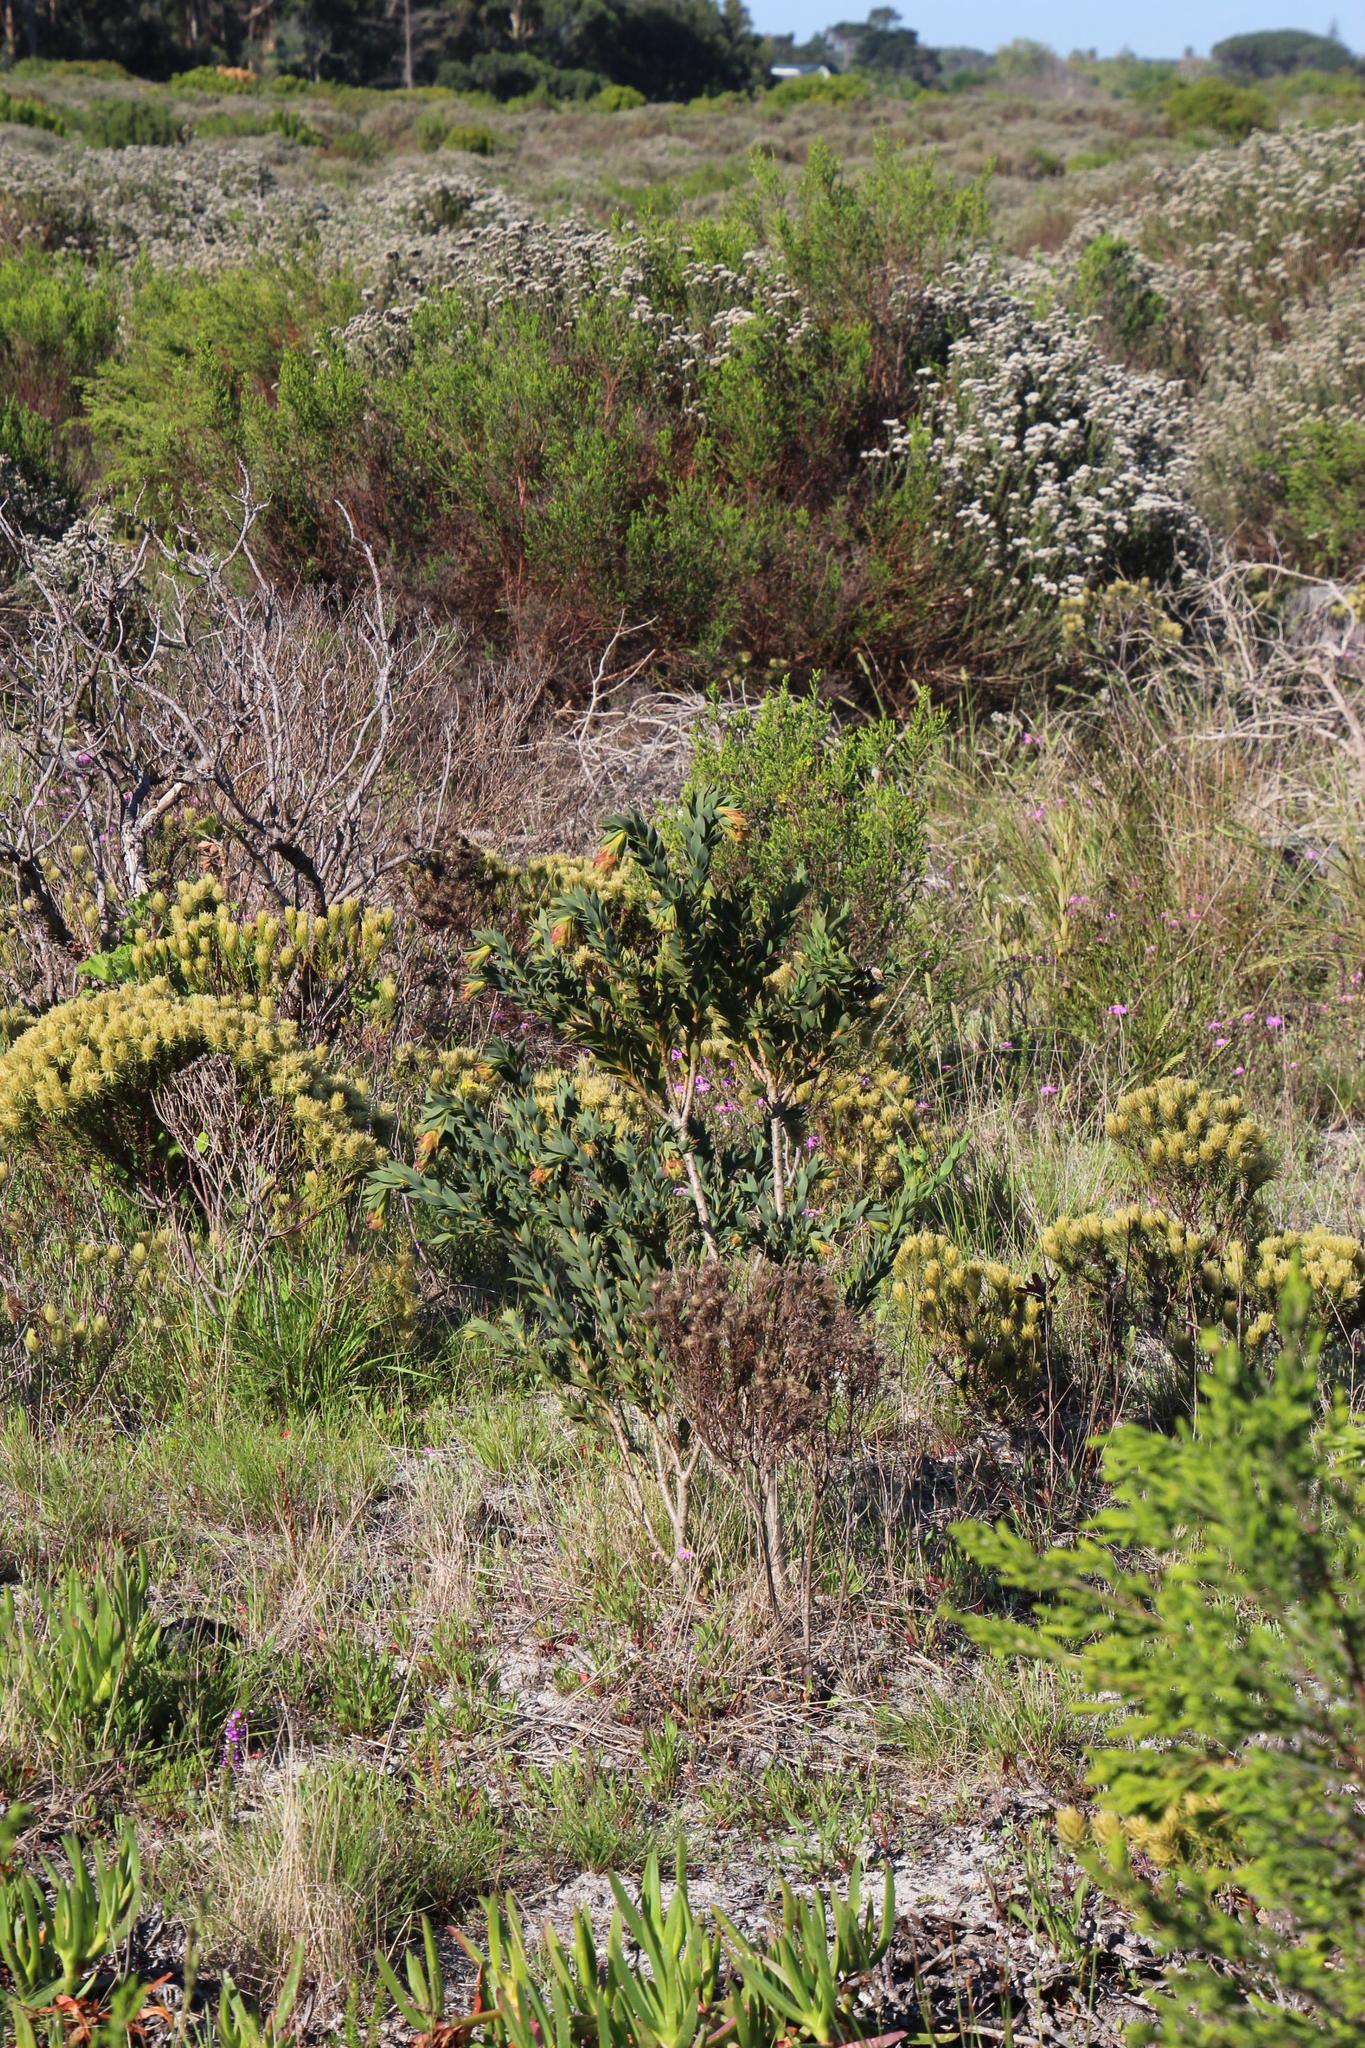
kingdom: Plantae
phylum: Tracheophyta
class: Magnoliopsida
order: Fabales
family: Fabaceae
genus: Liparia
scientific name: Liparia splendens
